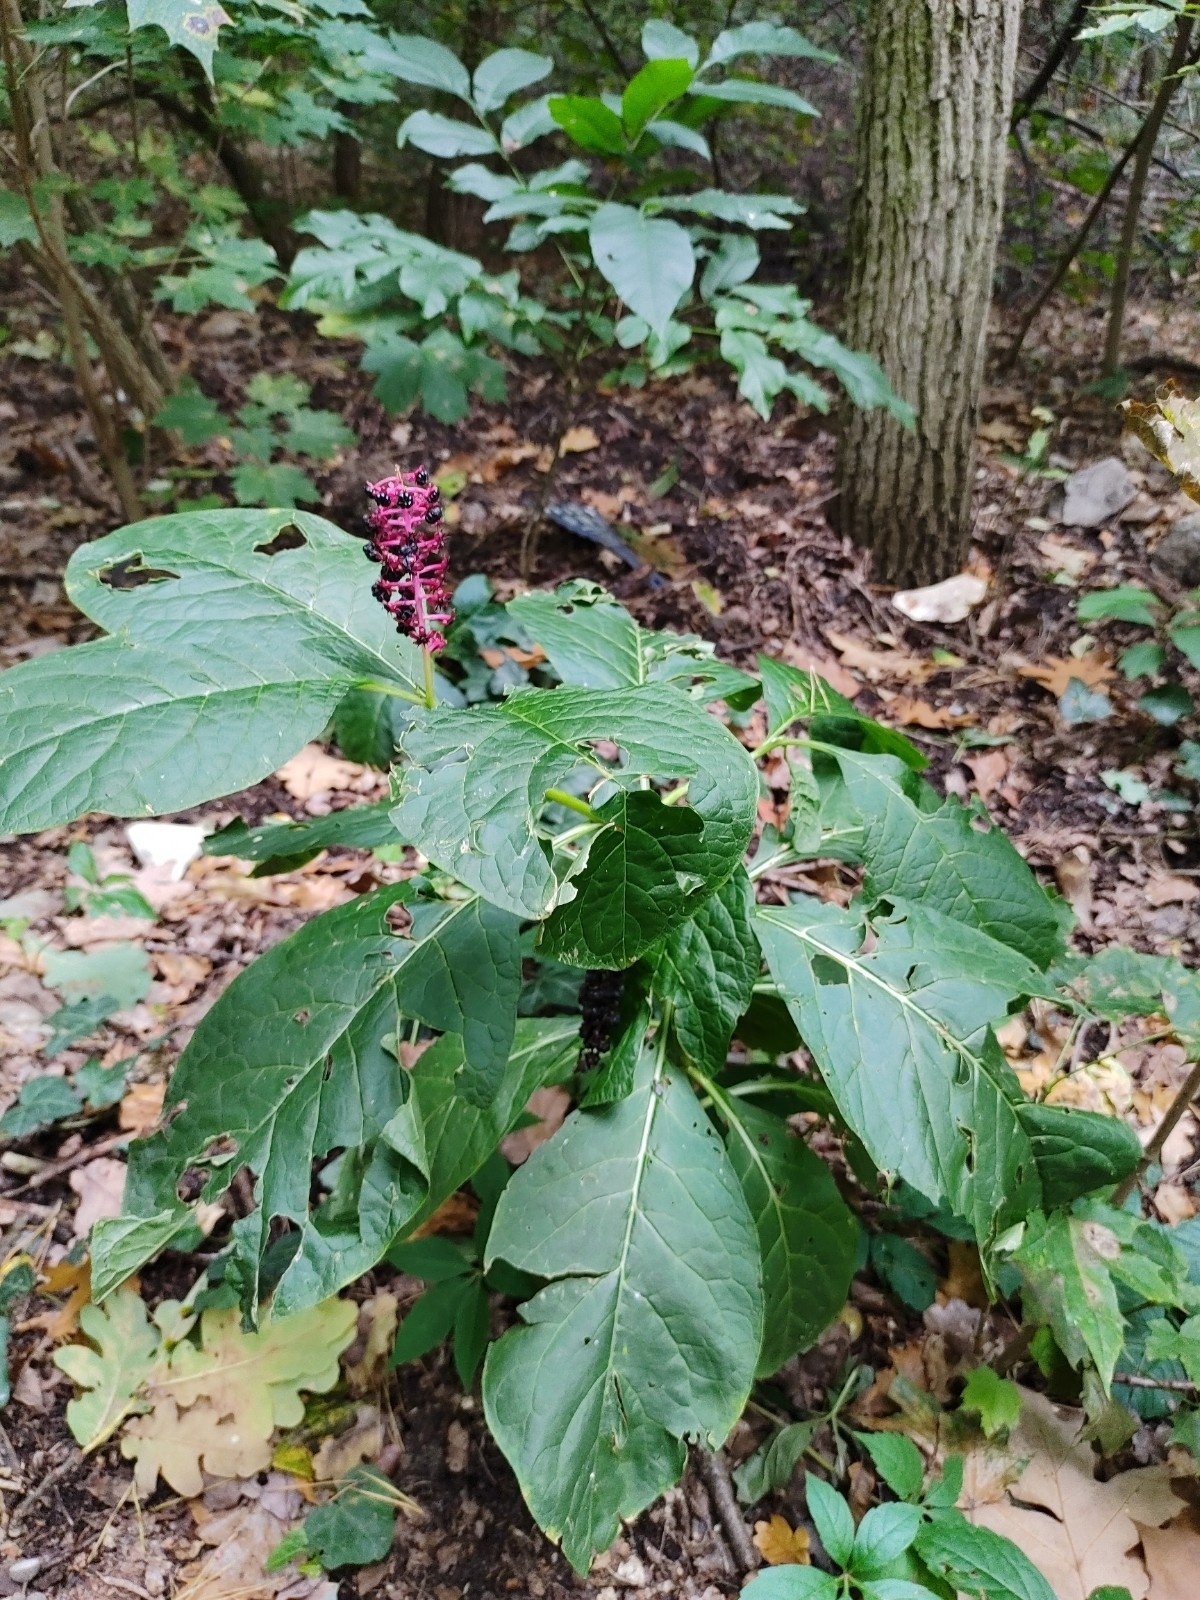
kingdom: Plantae
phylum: Tracheophyta
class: Magnoliopsida
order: Caryophyllales
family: Phytolaccaceae
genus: Phytolacca
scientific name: Phytolacca acinosa
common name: Indian pokeweed
